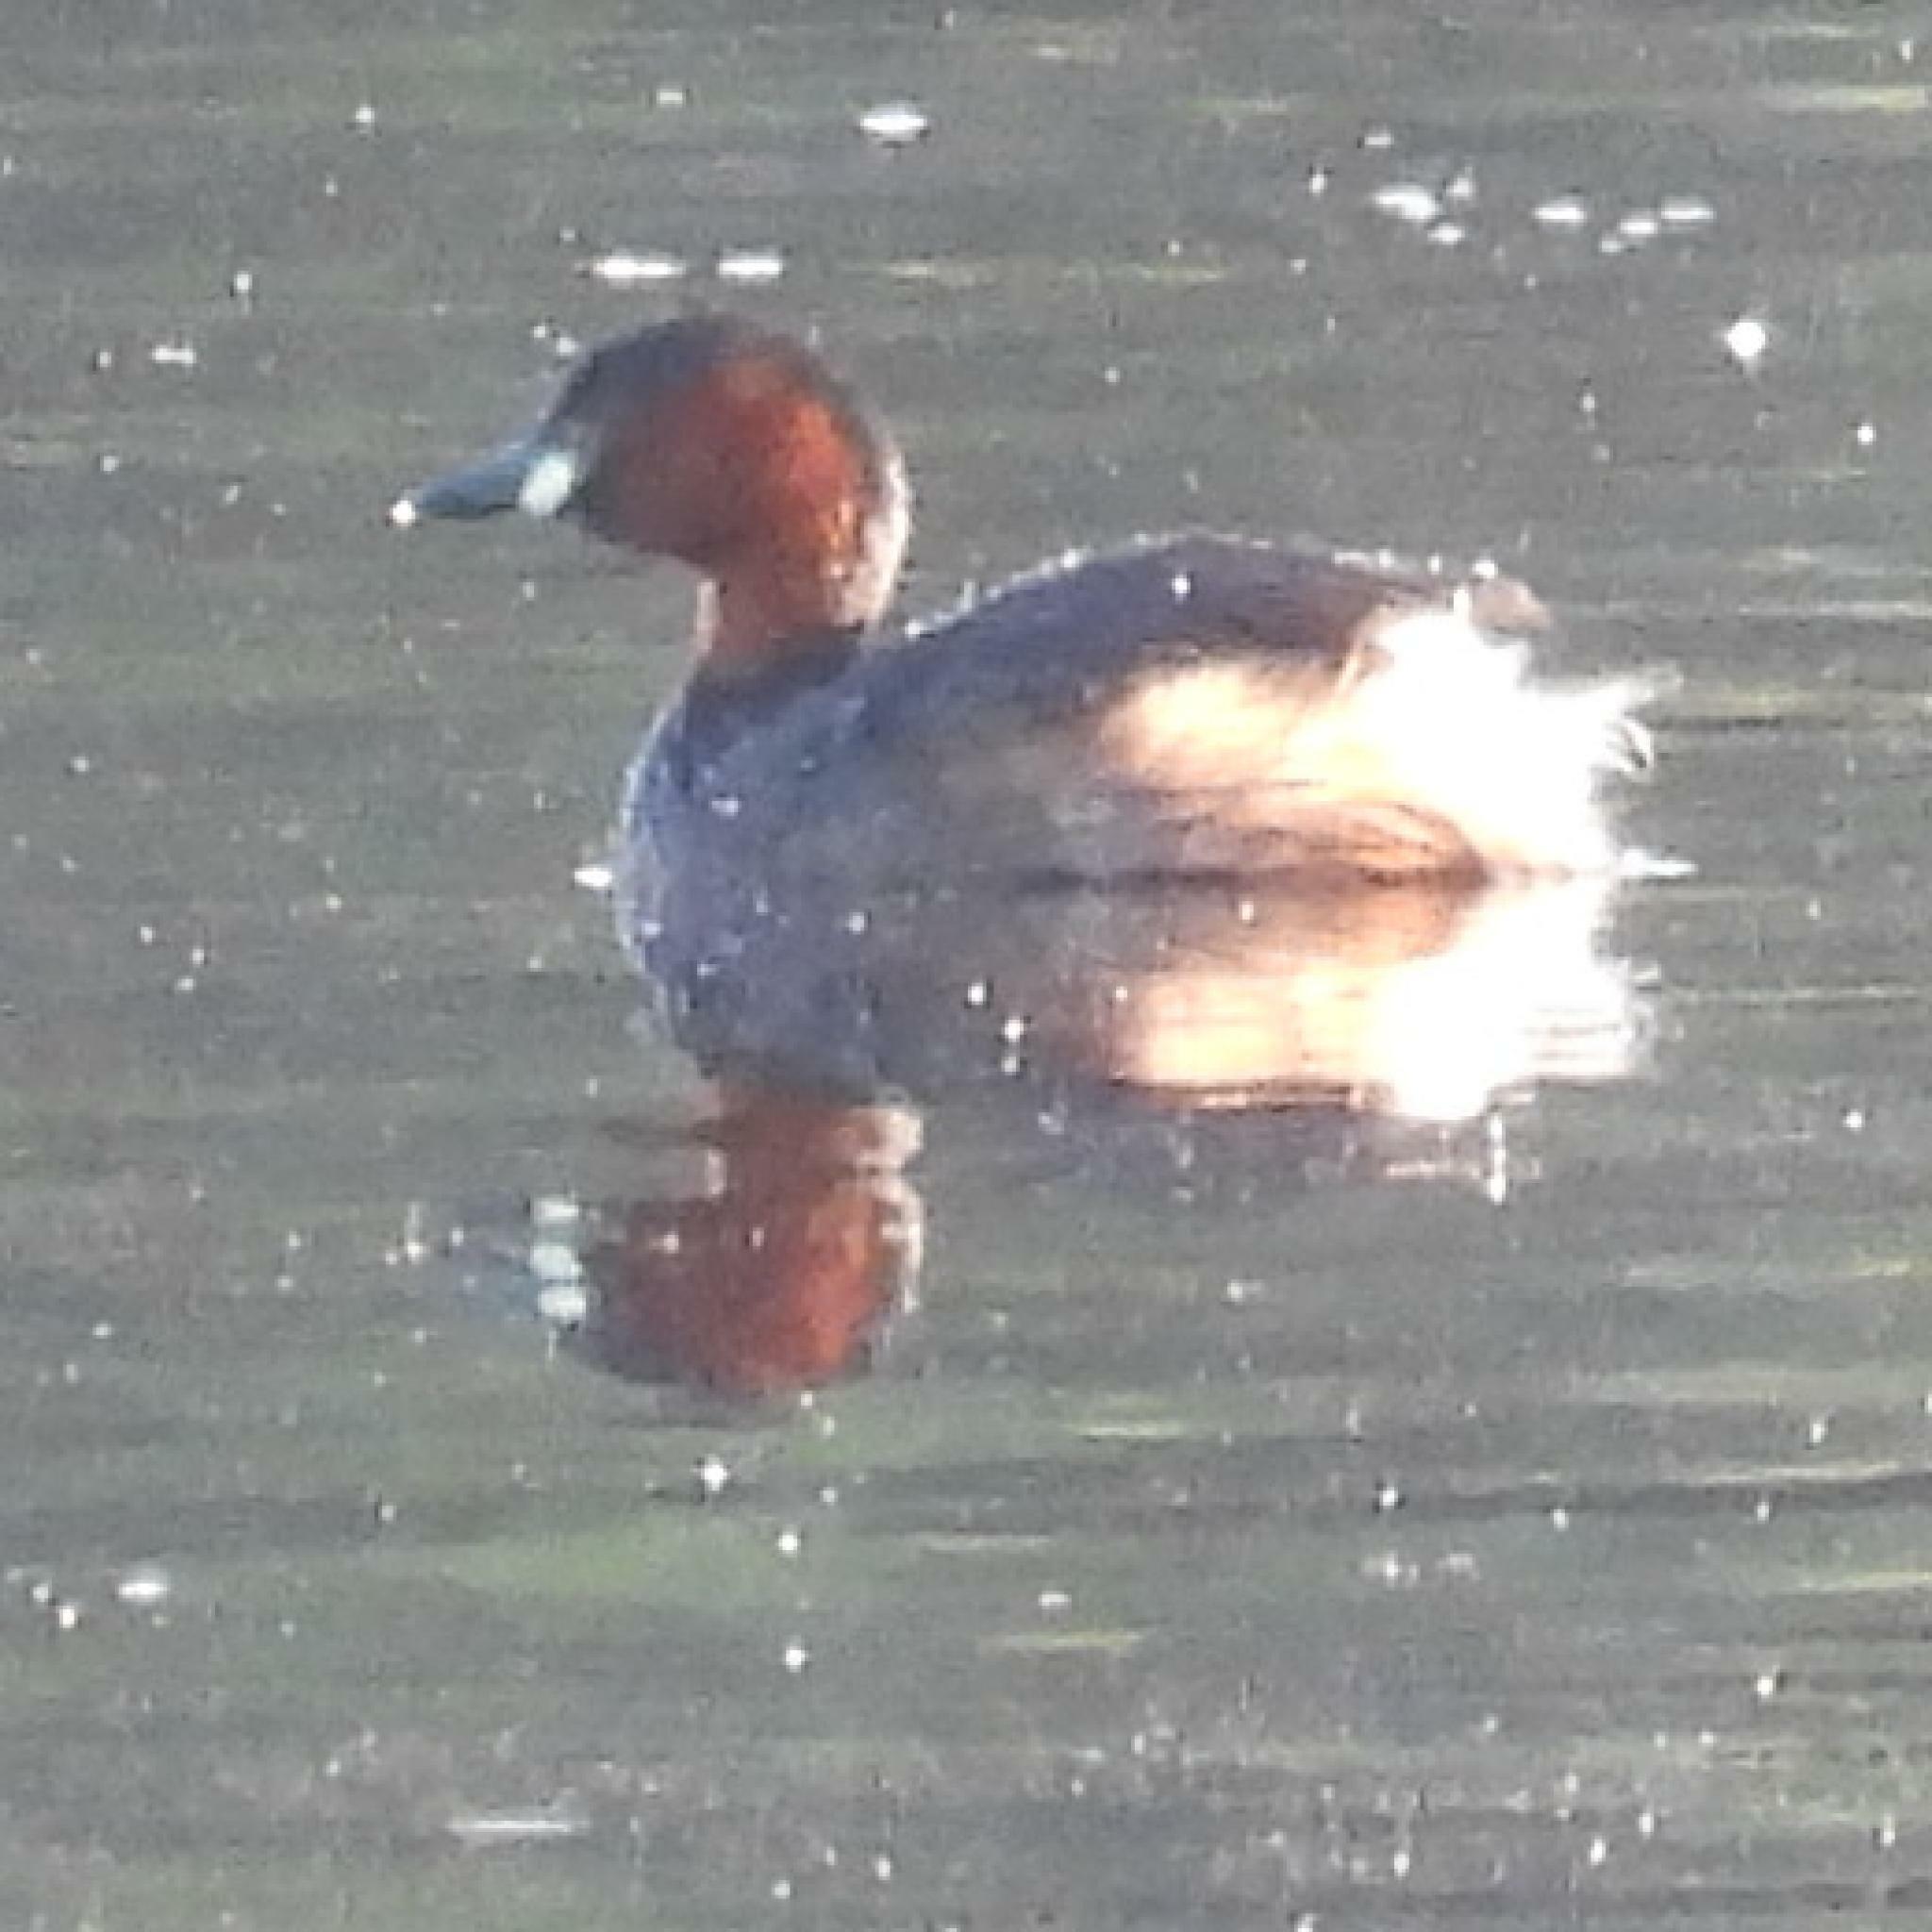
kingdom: Animalia
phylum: Chordata
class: Aves
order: Podicipediformes
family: Podicipedidae
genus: Tachybaptus
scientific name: Tachybaptus ruficollis
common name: Little grebe
